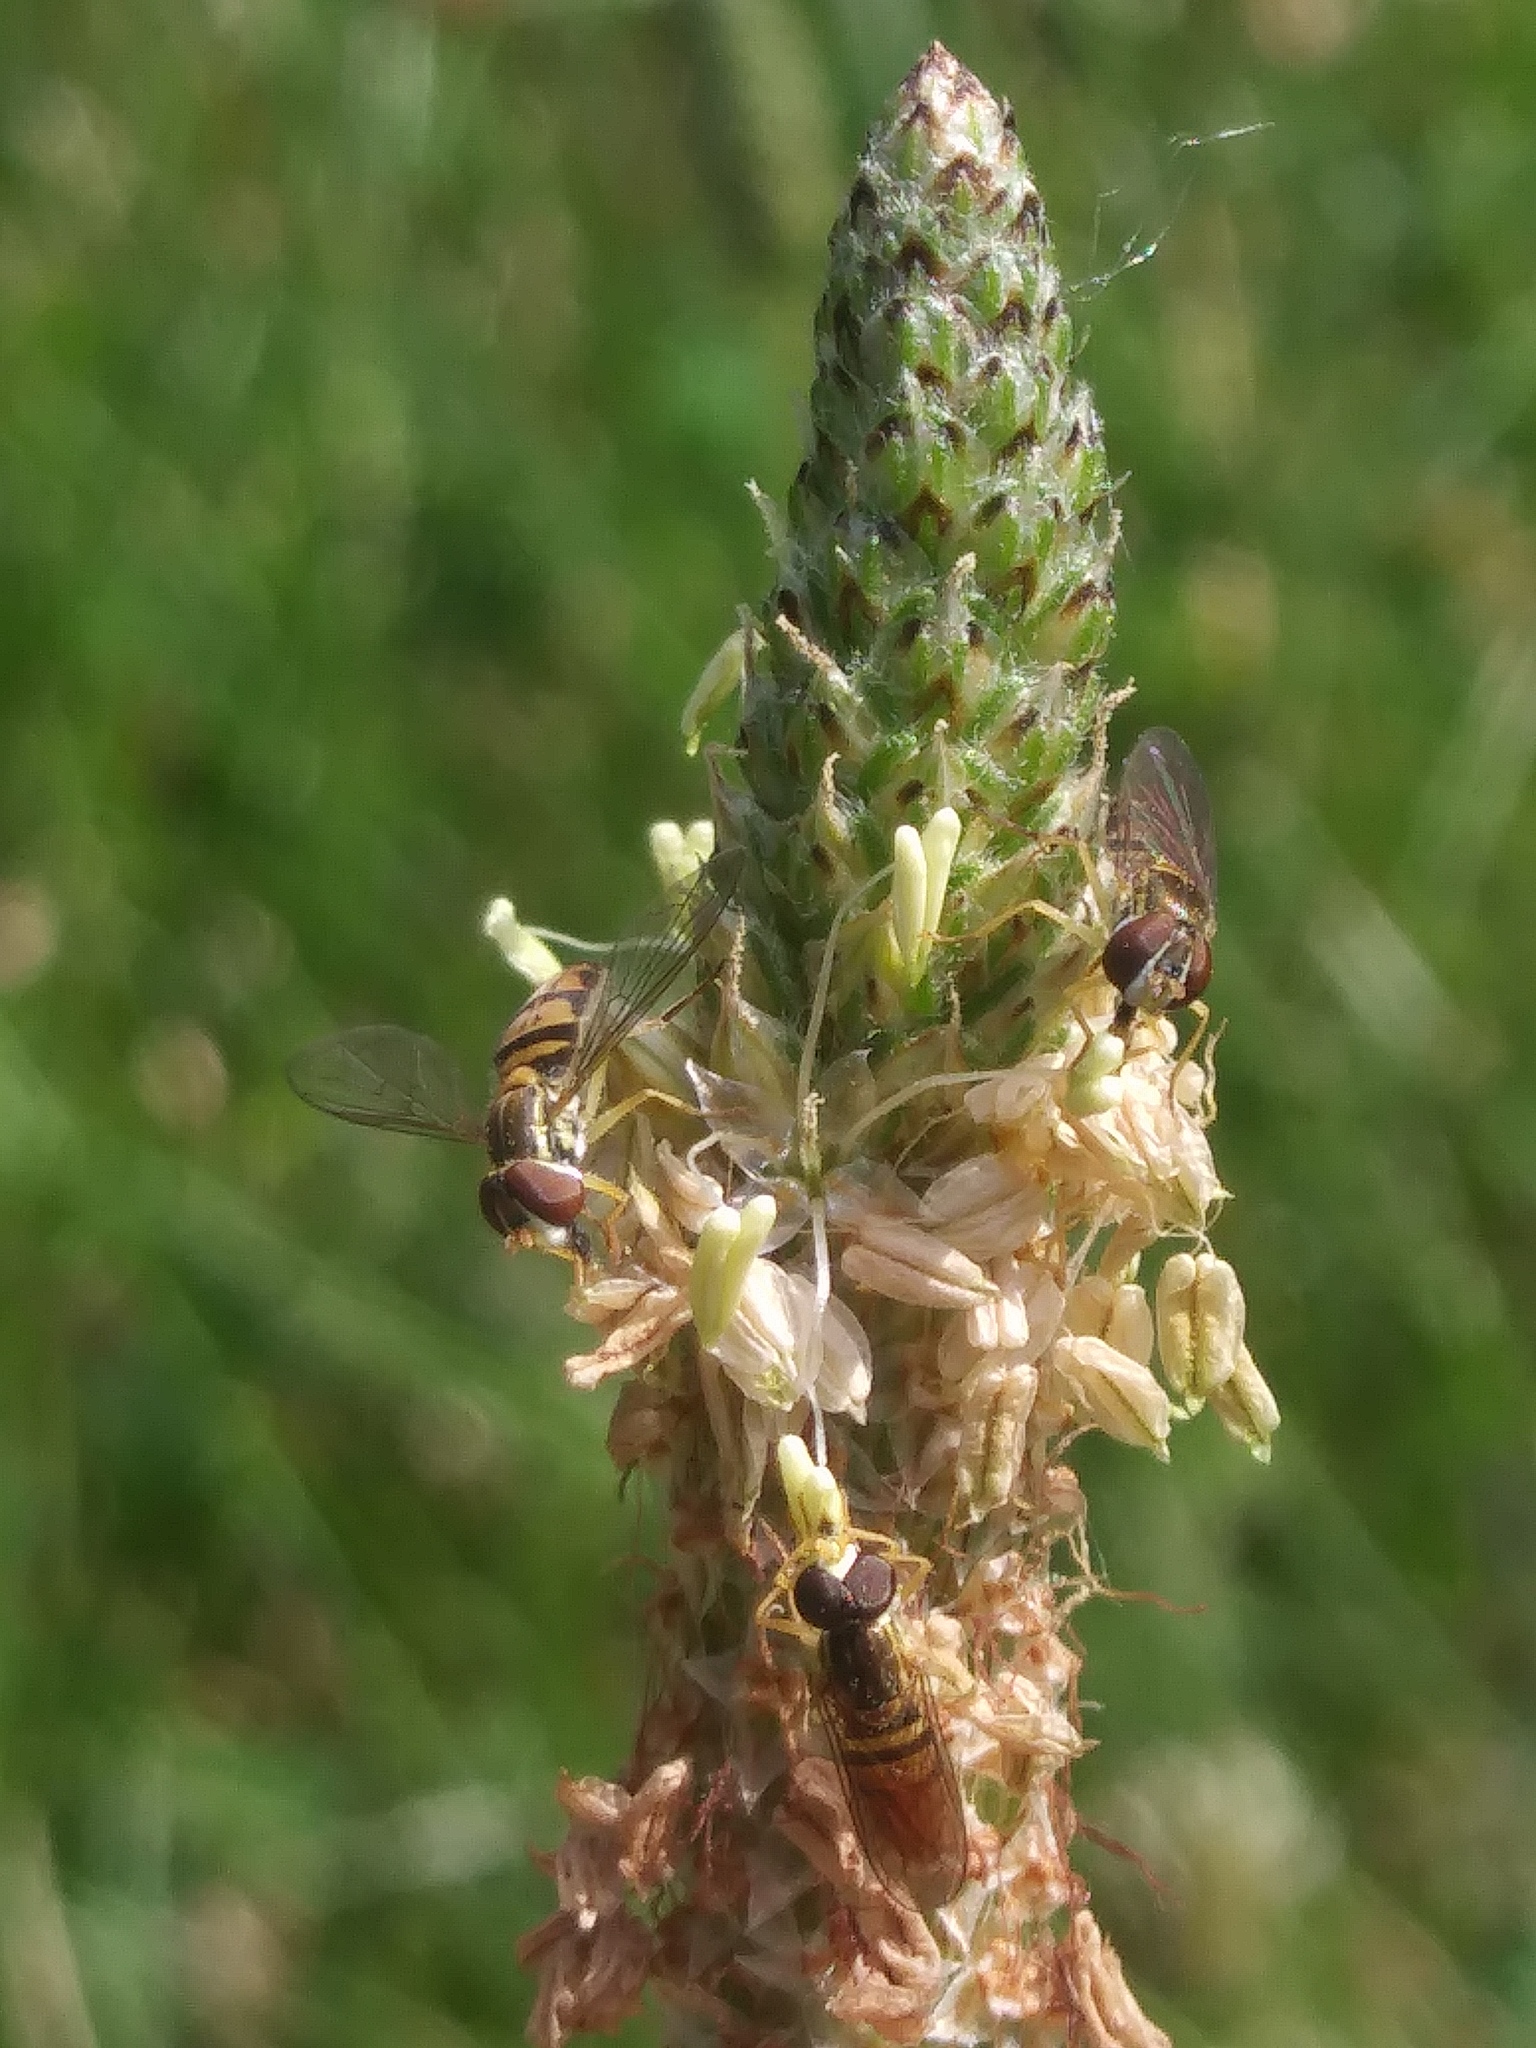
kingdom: Animalia
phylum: Arthropoda
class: Insecta
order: Diptera
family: Syrphidae
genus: Toxomerus
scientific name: Toxomerus marginatus
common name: Syrphid fly
